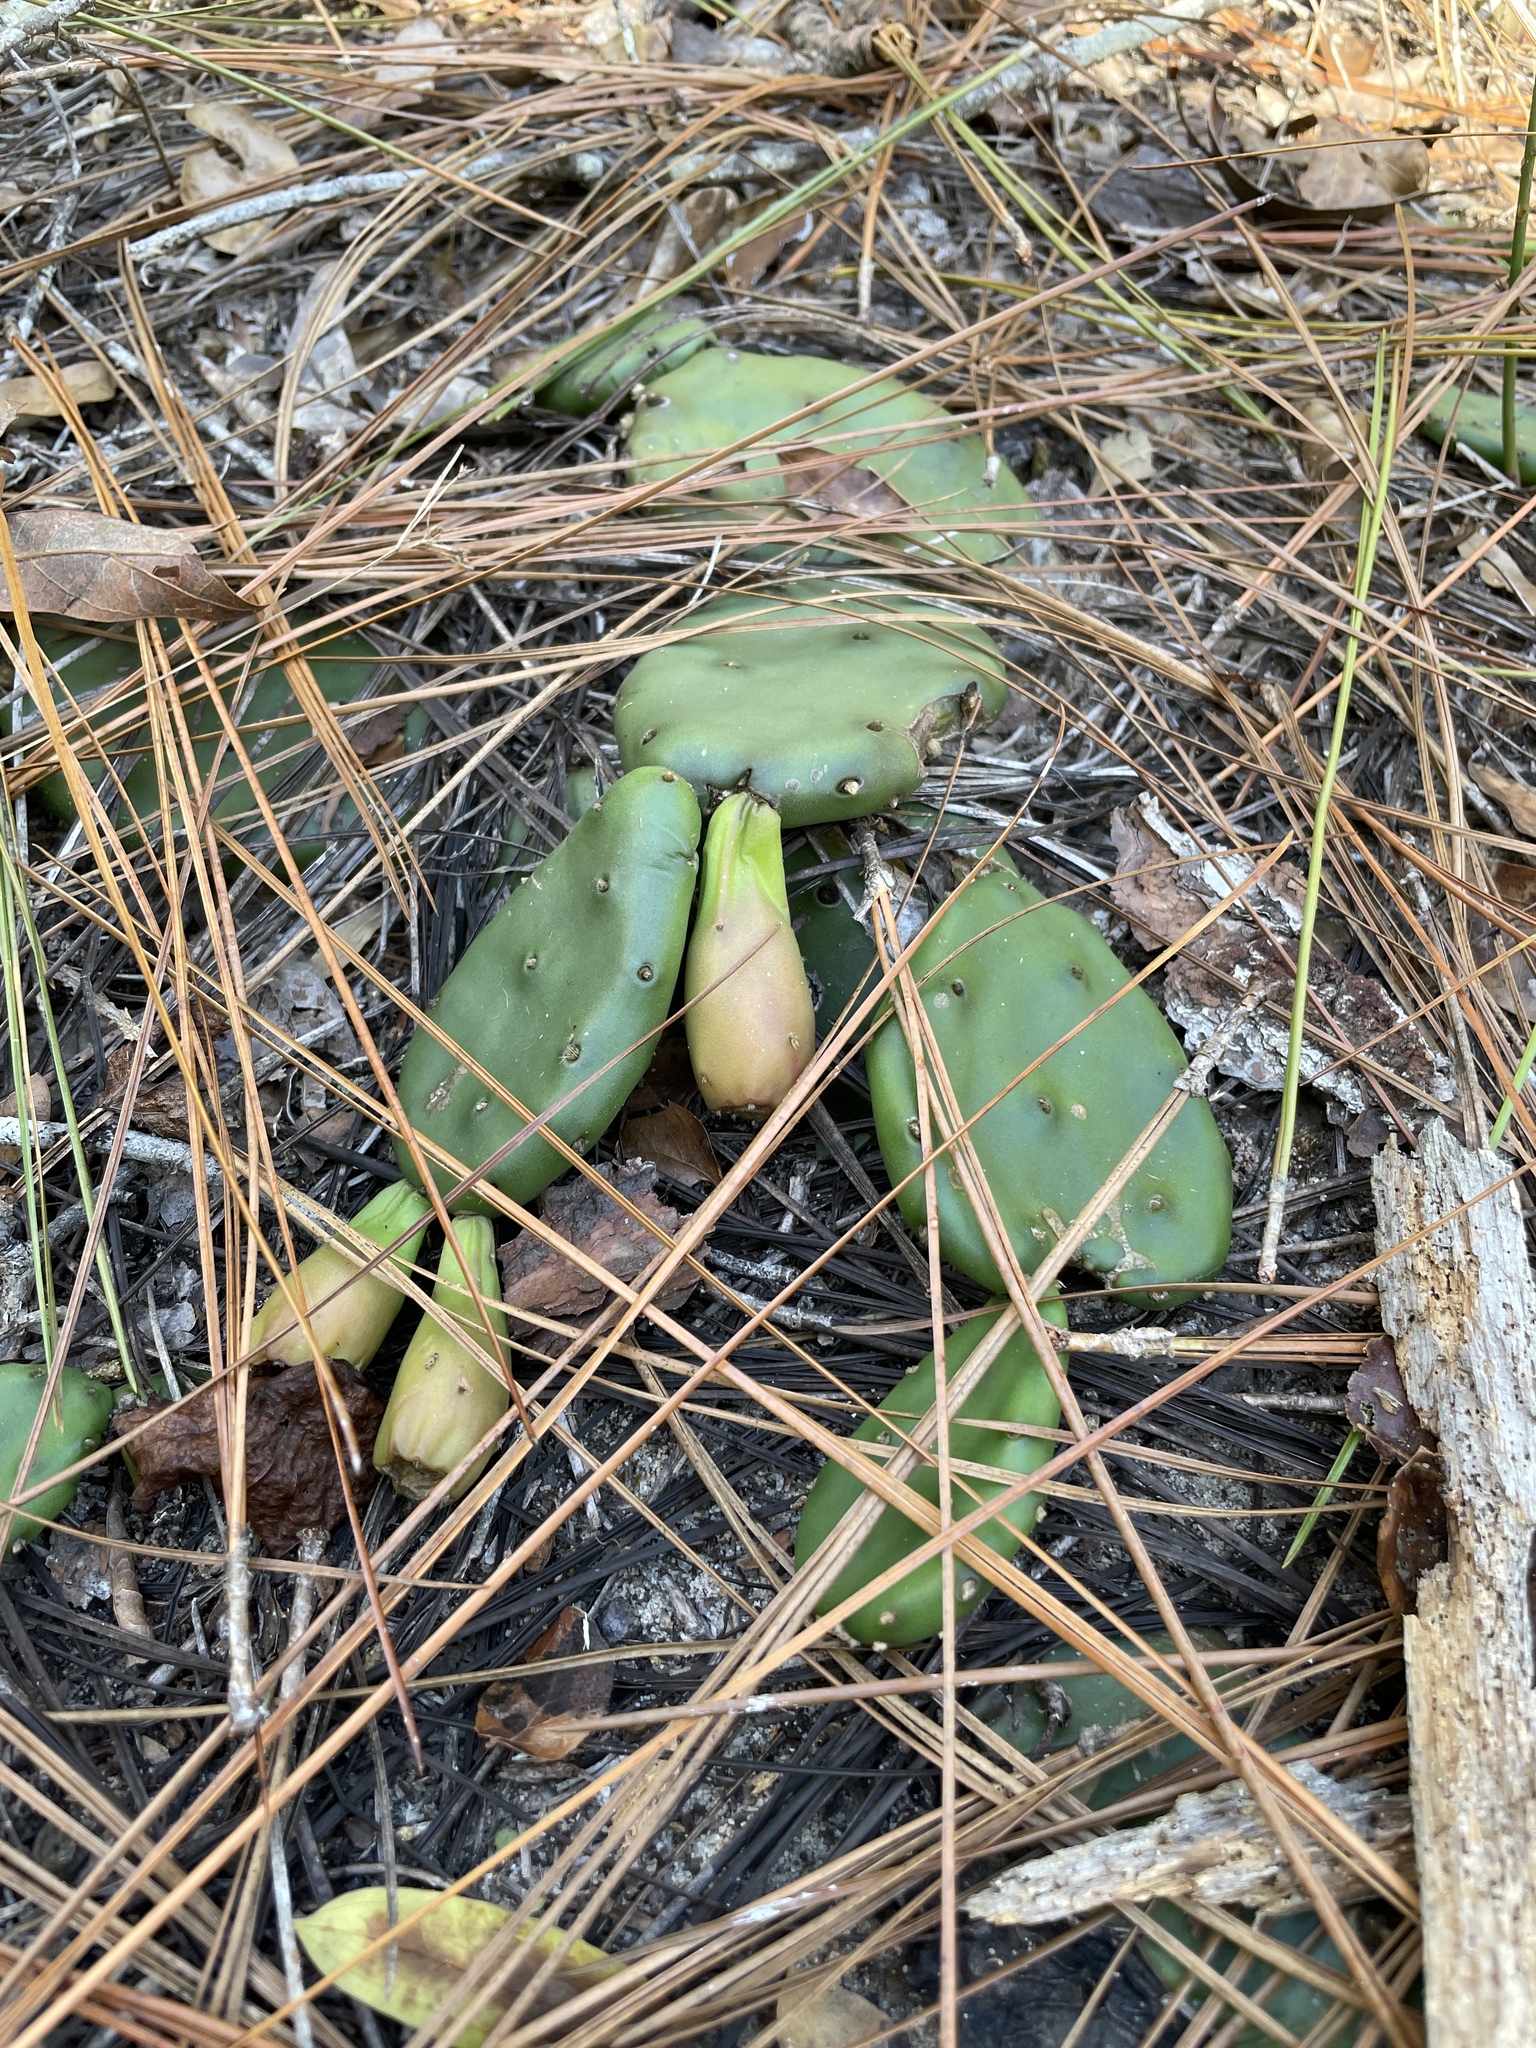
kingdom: Plantae
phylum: Tracheophyta
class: Magnoliopsida
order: Caryophyllales
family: Cactaceae
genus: Opuntia
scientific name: Opuntia mesacantha
